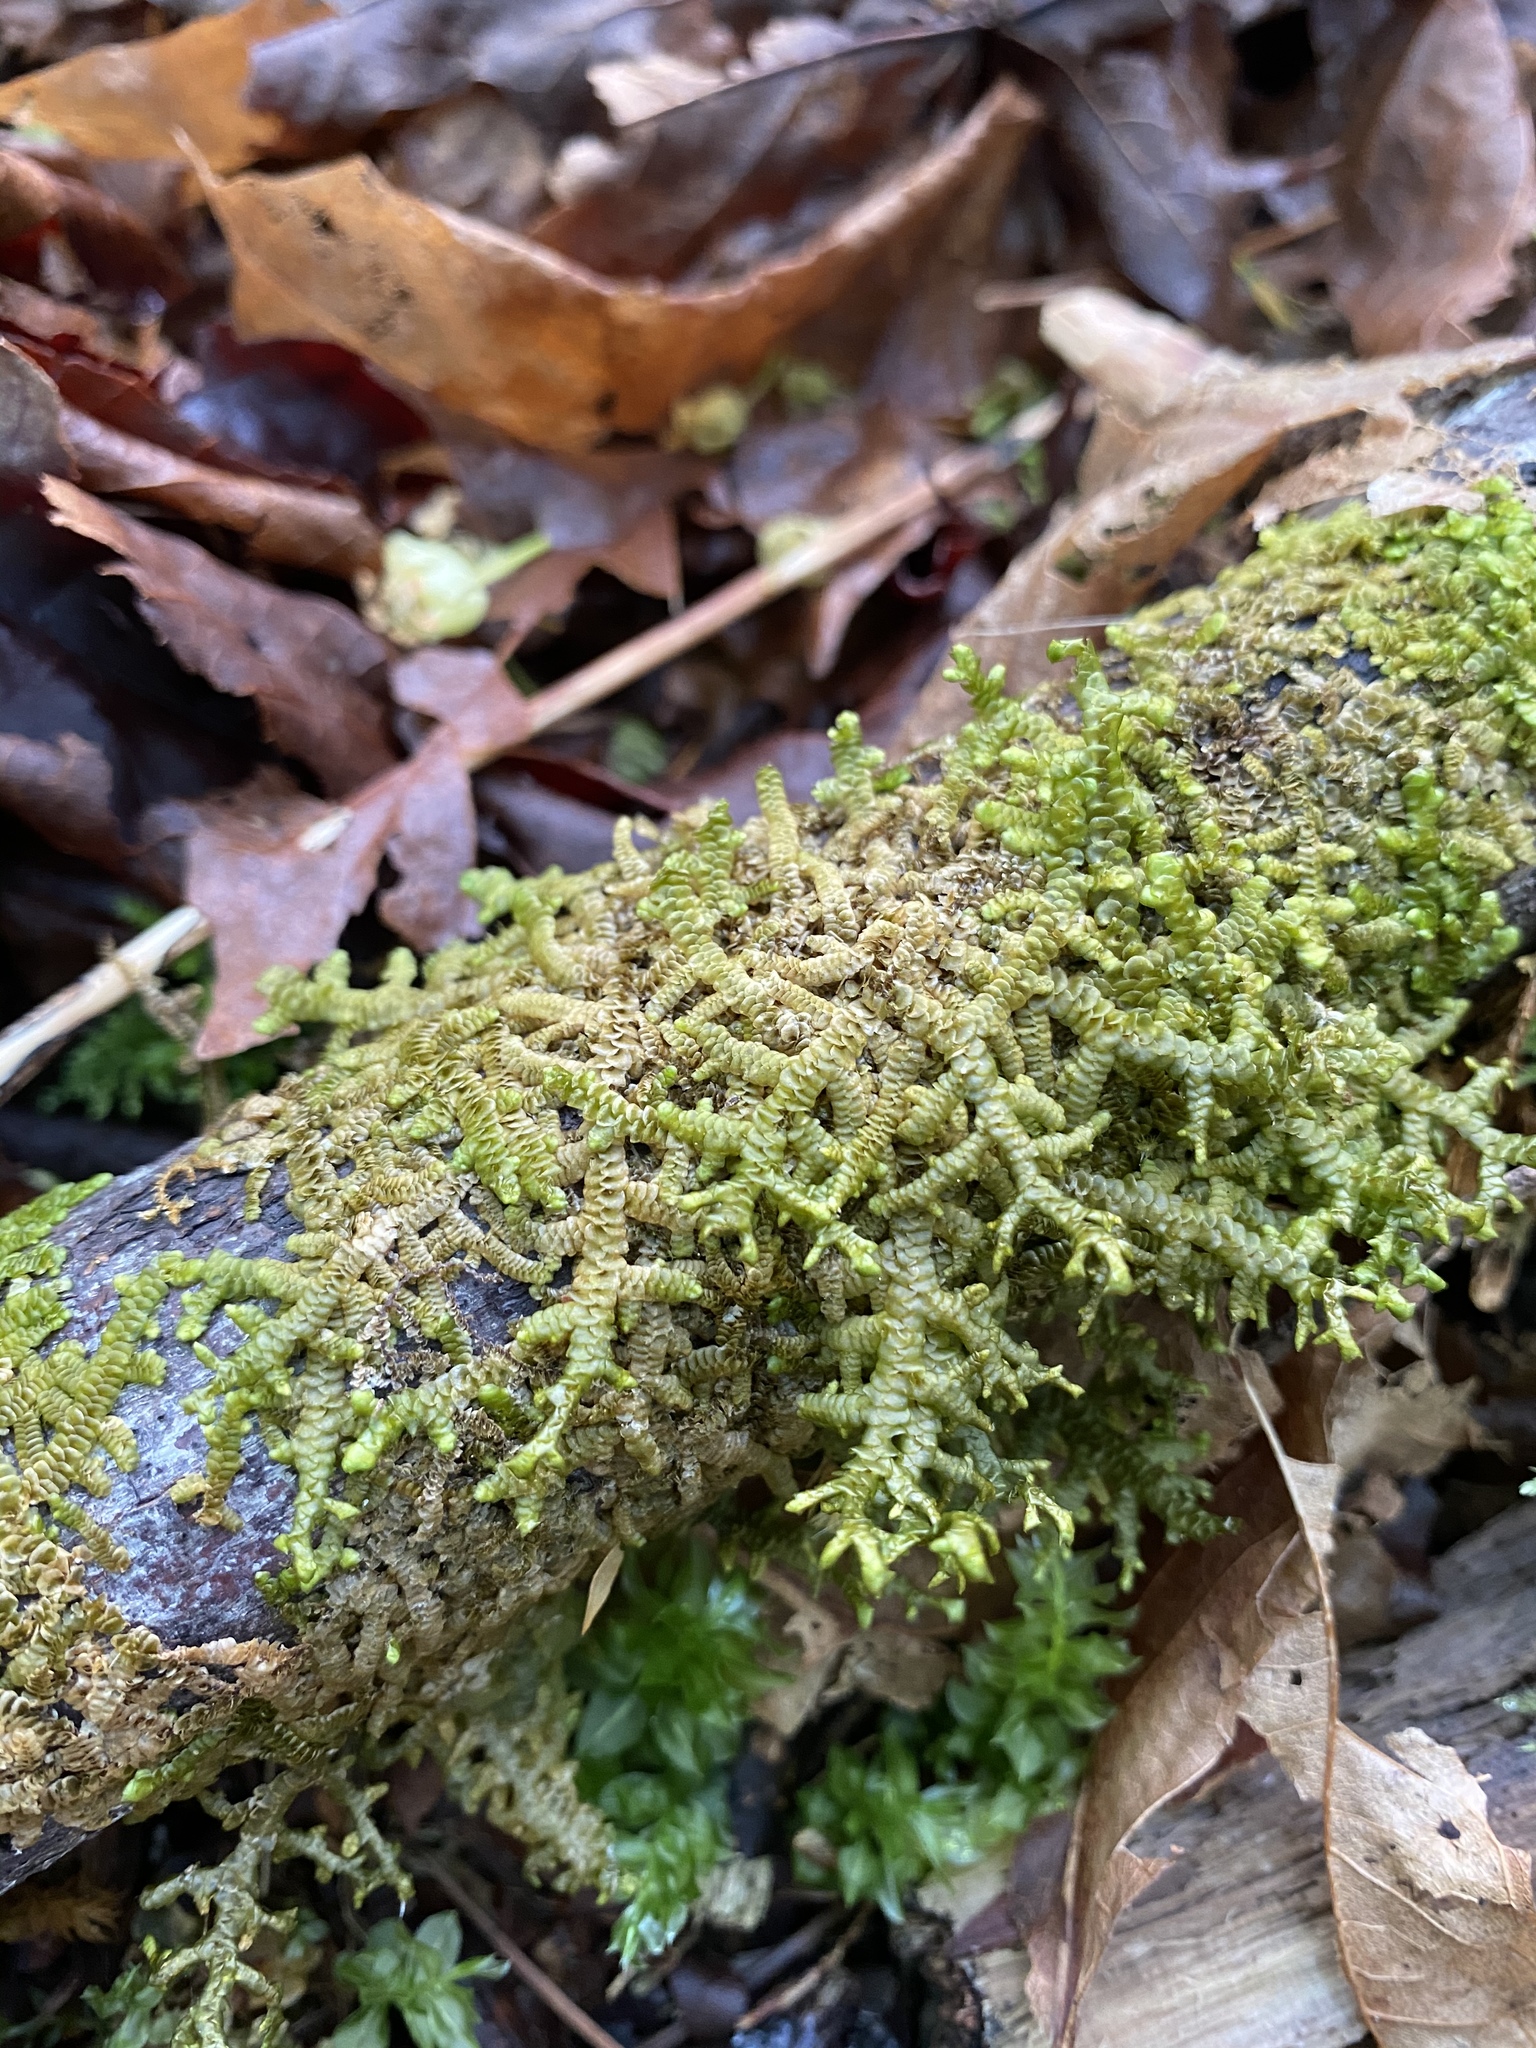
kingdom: Plantae
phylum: Marchantiophyta
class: Jungermanniopsida
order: Porellales
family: Porellaceae
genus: Porella
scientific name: Porella navicularis
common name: Tree ruffle liverwort
